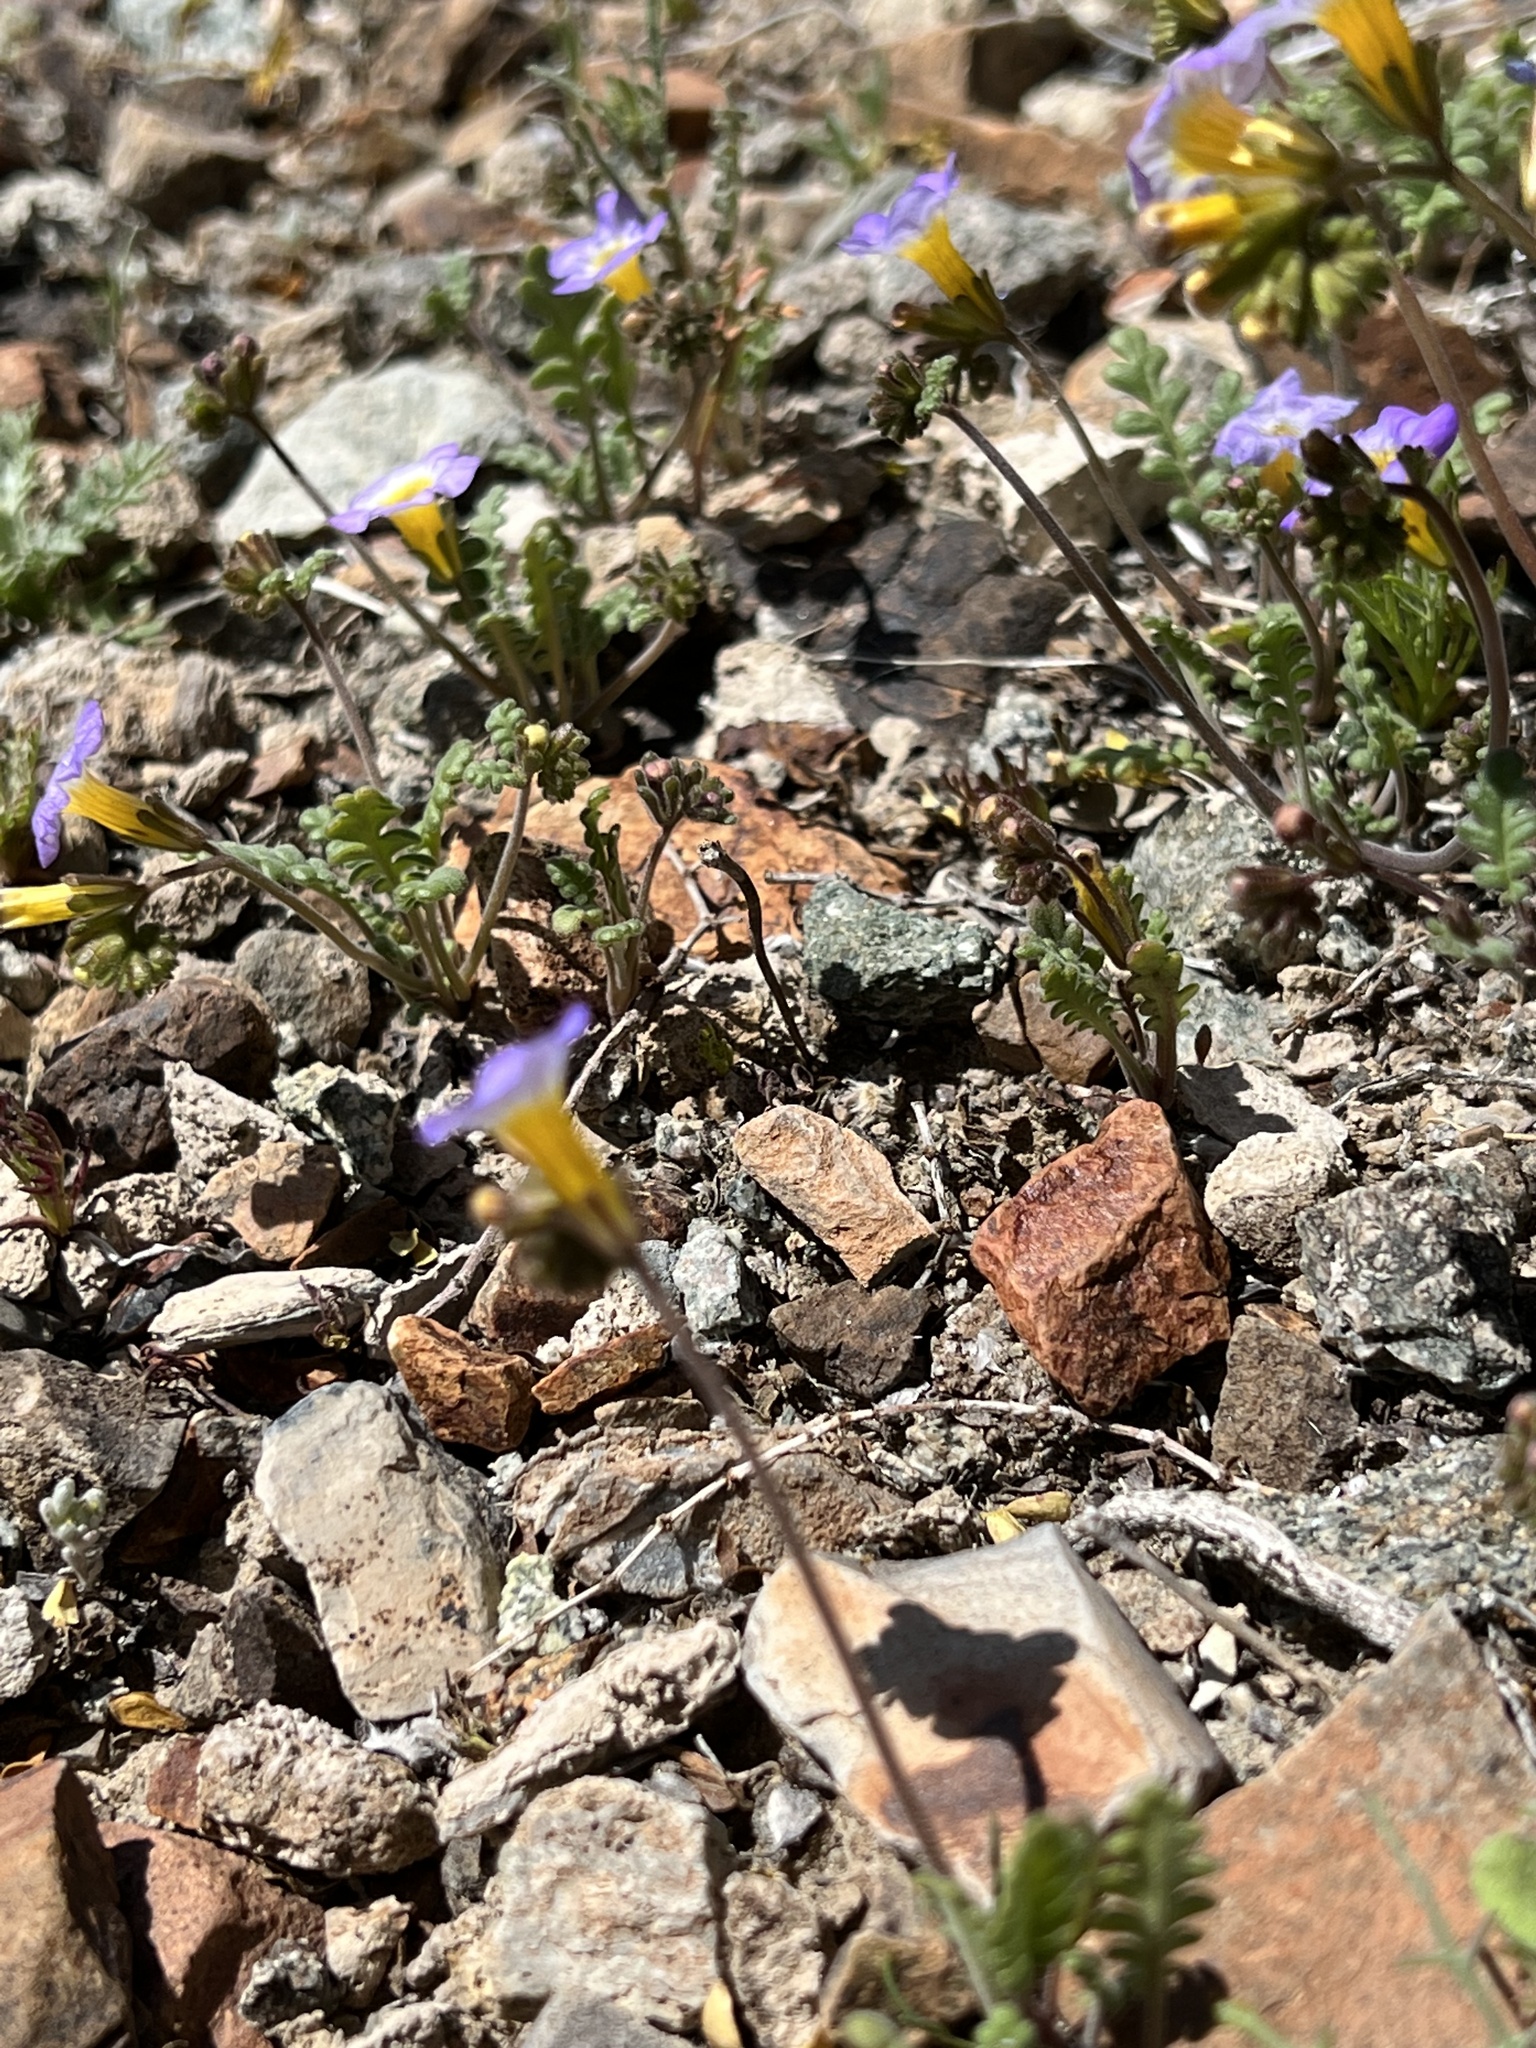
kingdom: Plantae
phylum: Tracheophyta
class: Magnoliopsida
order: Boraginales
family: Hydrophyllaceae
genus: Phacelia
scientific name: Phacelia fremontii
